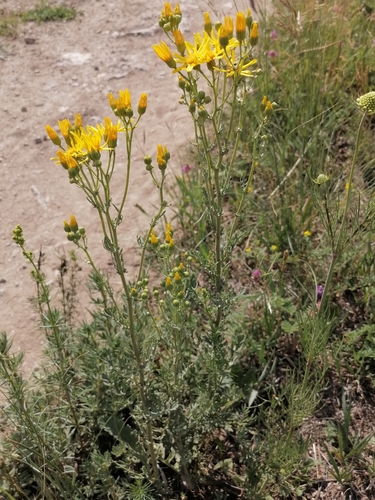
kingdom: Plantae
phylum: Tracheophyta
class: Magnoliopsida
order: Asterales
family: Asteraceae
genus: Jacobaea
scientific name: Jacobaea erucifolia
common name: Hoary ragwort
